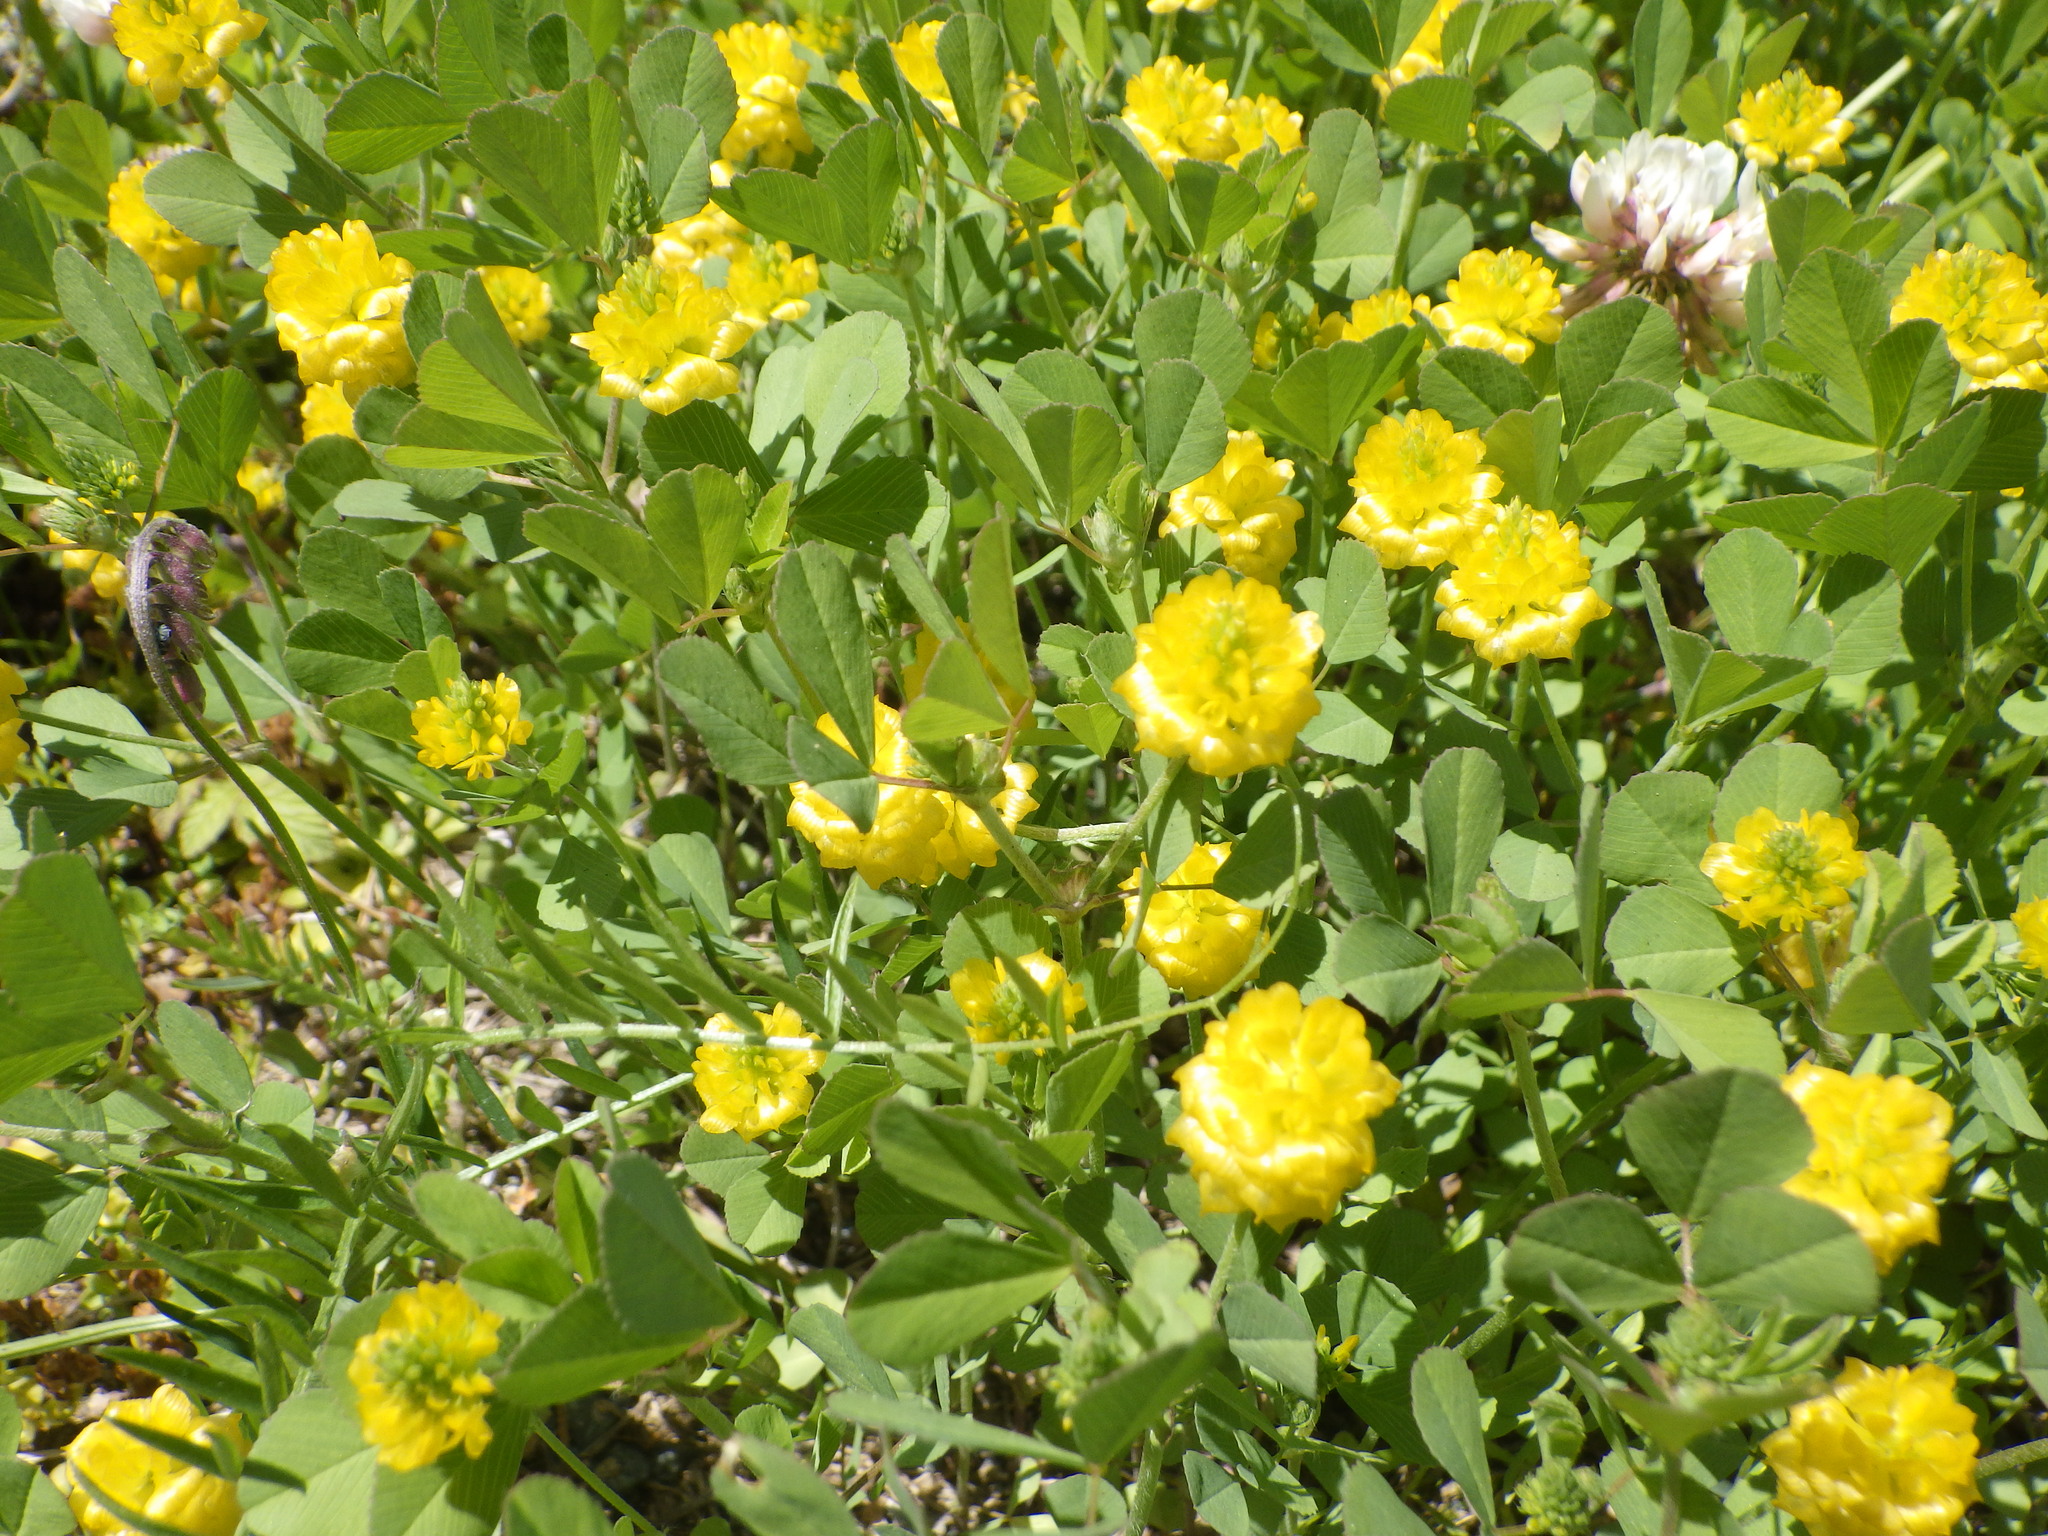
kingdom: Plantae
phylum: Tracheophyta
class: Magnoliopsida
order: Fabales
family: Fabaceae
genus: Trifolium
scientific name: Trifolium campestre
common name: Field clover
